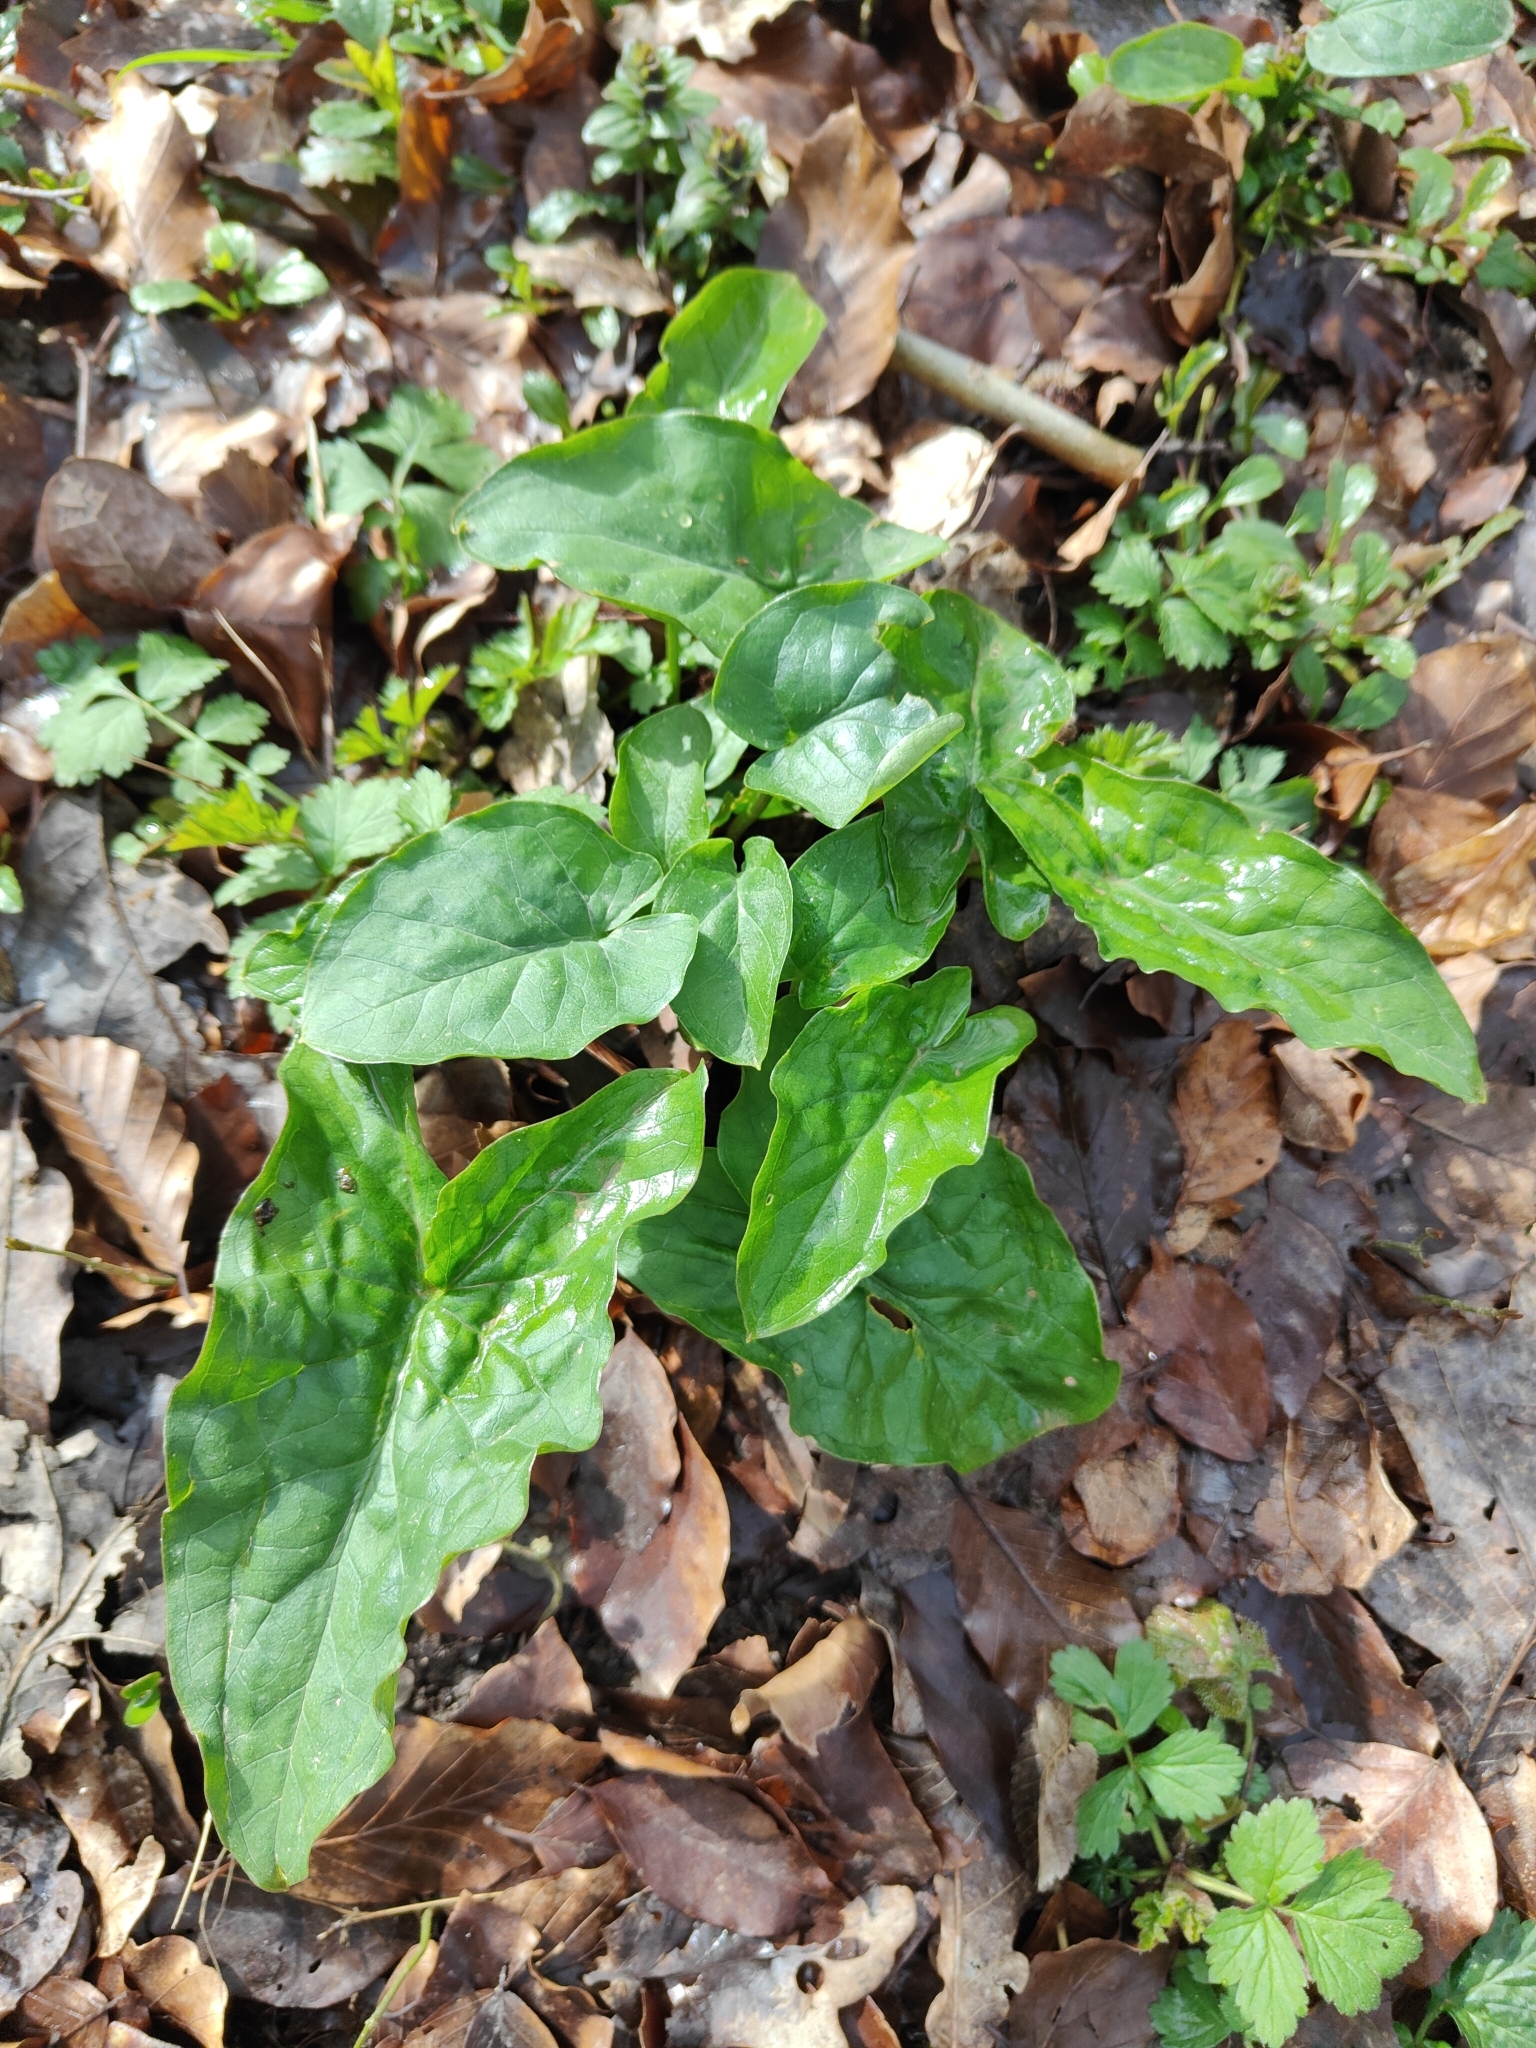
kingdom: Plantae
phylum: Tracheophyta
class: Liliopsida
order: Alismatales
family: Araceae
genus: Arum
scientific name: Arum maculatum
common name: Lords-and-ladies
